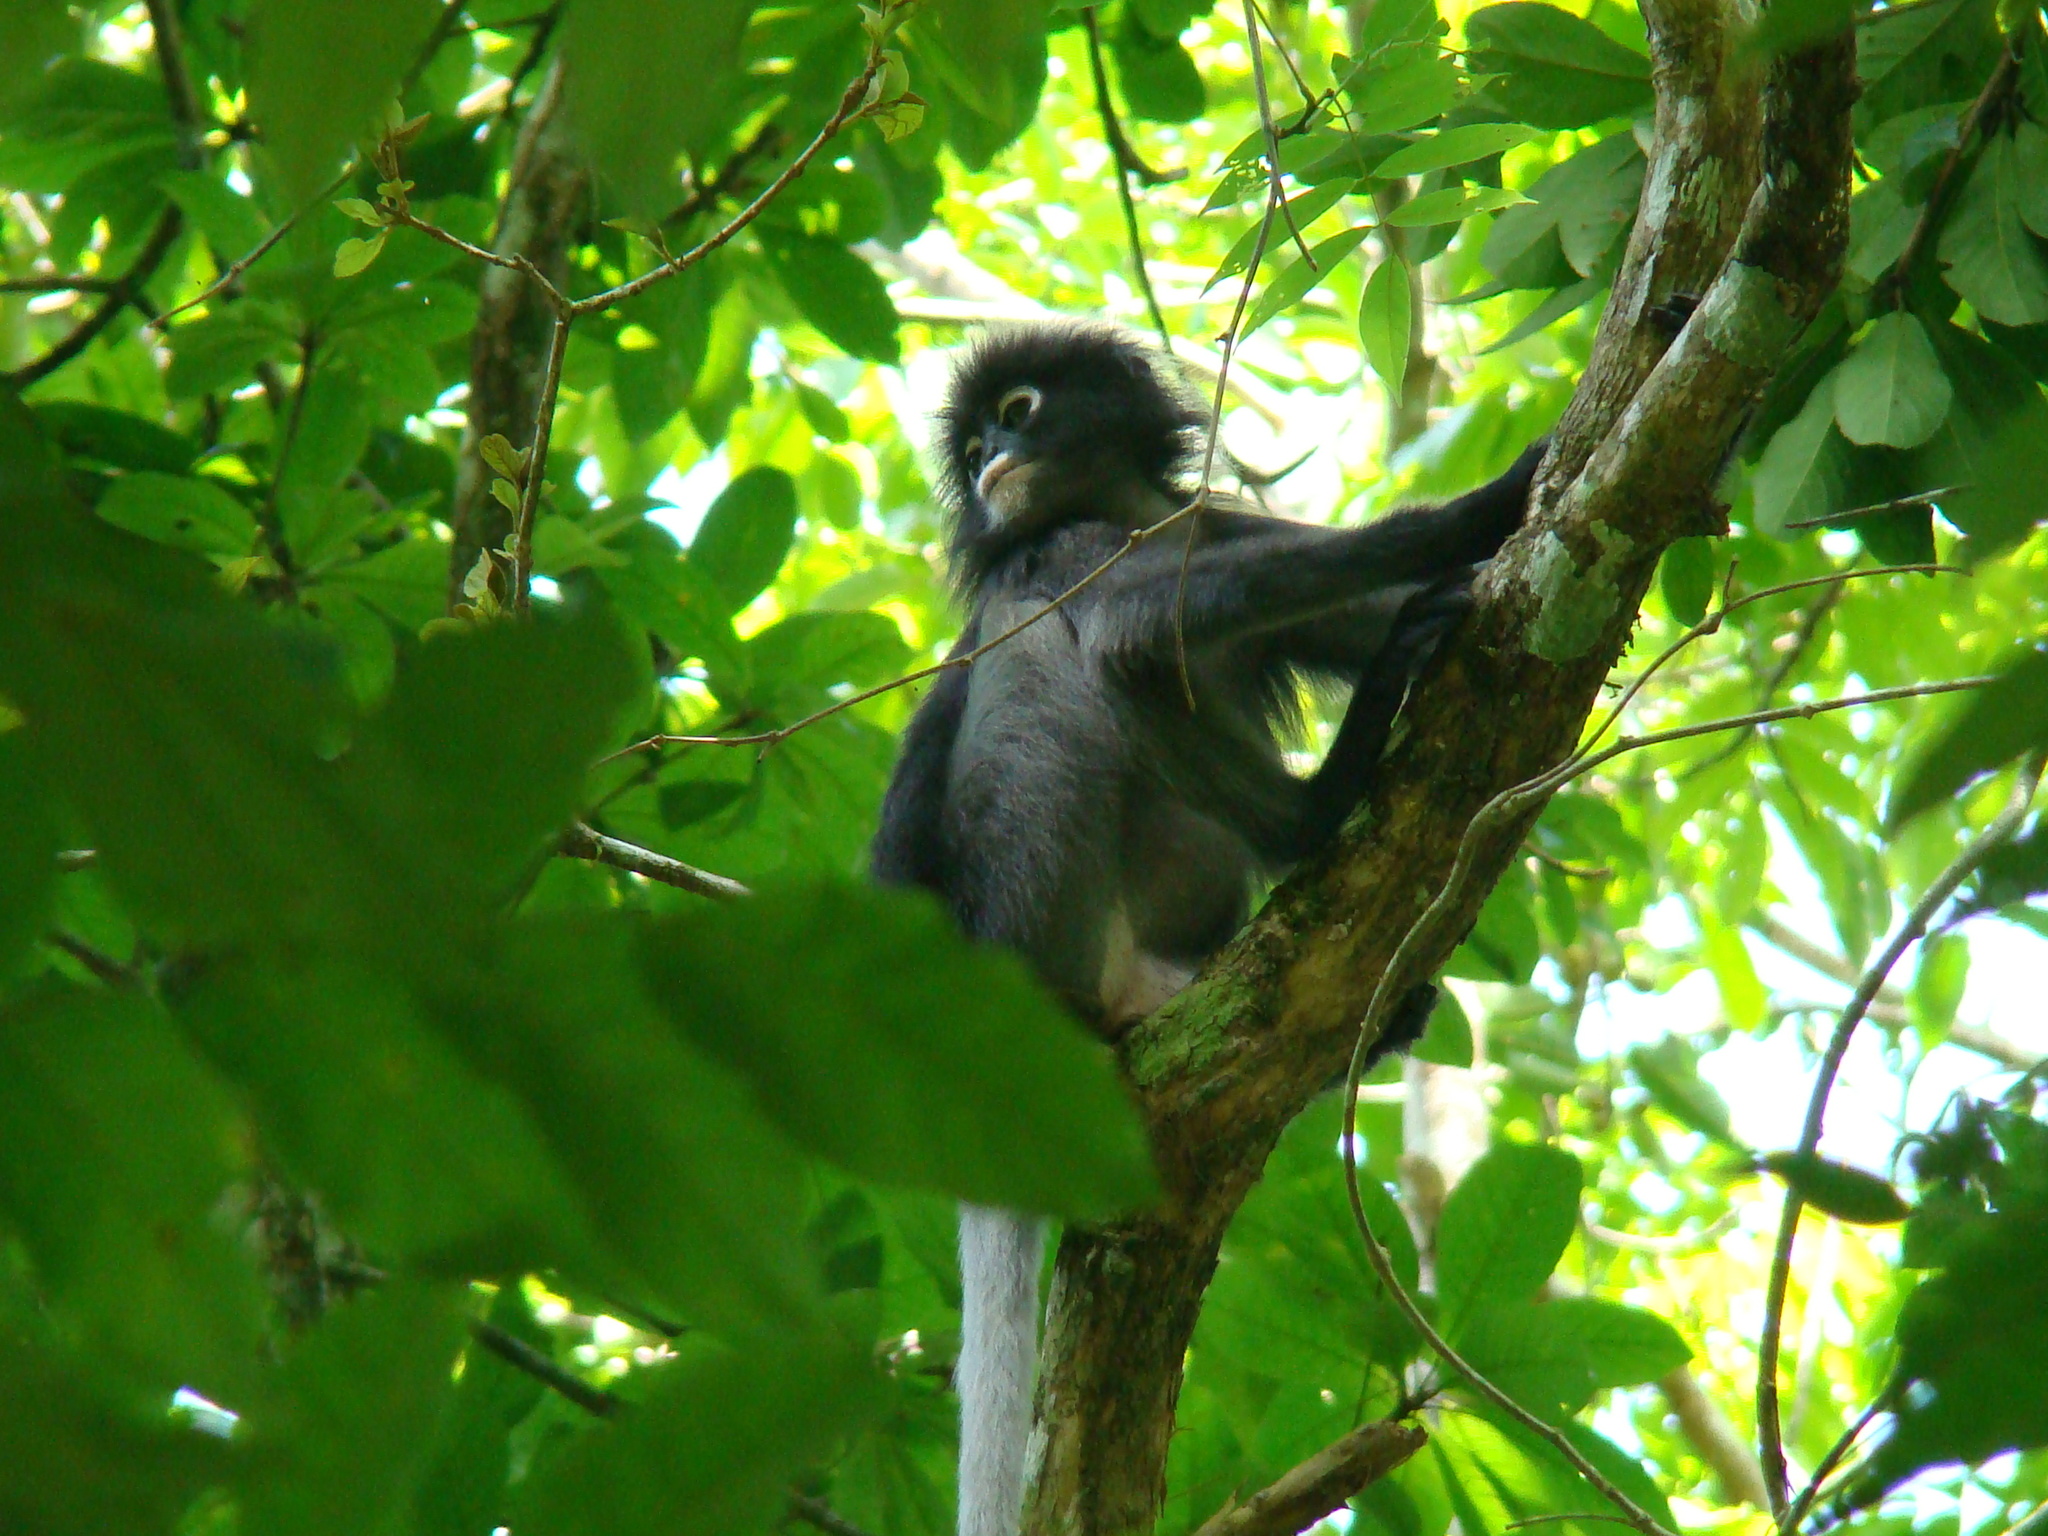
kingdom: Animalia
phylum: Chordata
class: Mammalia
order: Primates
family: Cercopithecidae
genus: Trachypithecus
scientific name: Trachypithecus obscurus
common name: Dusky leaf-monkey
